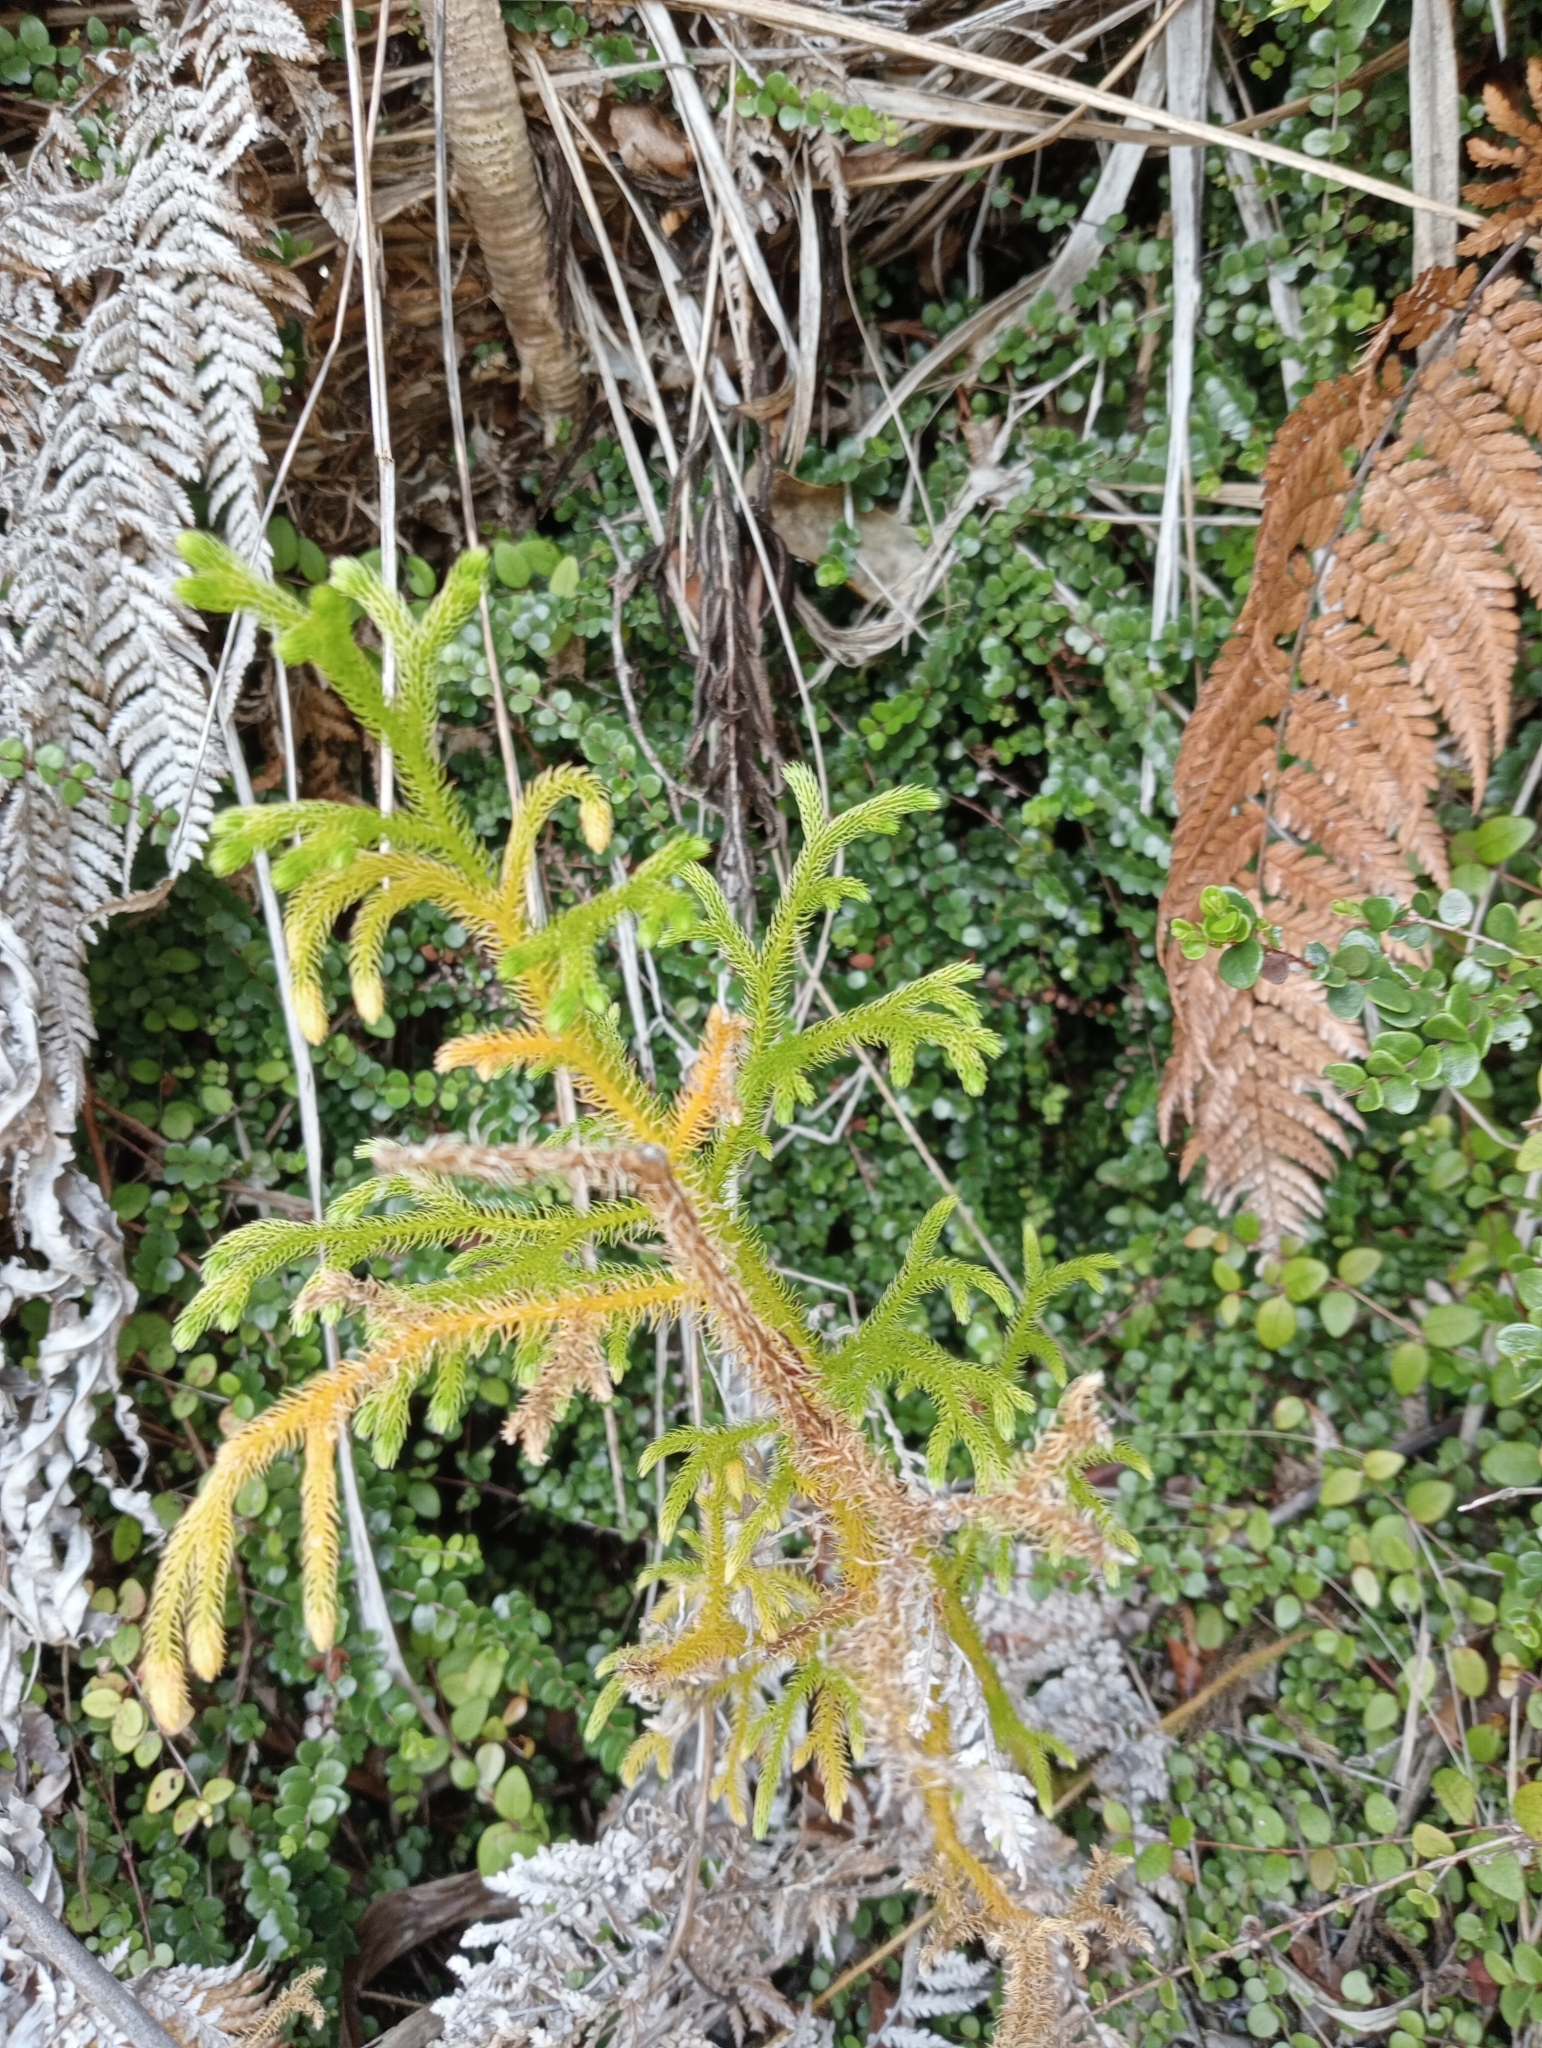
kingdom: Plantae
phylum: Tracheophyta
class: Lycopodiopsida
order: Lycopodiales
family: Lycopodiaceae
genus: Palhinhaea
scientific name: Palhinhaea cernua
